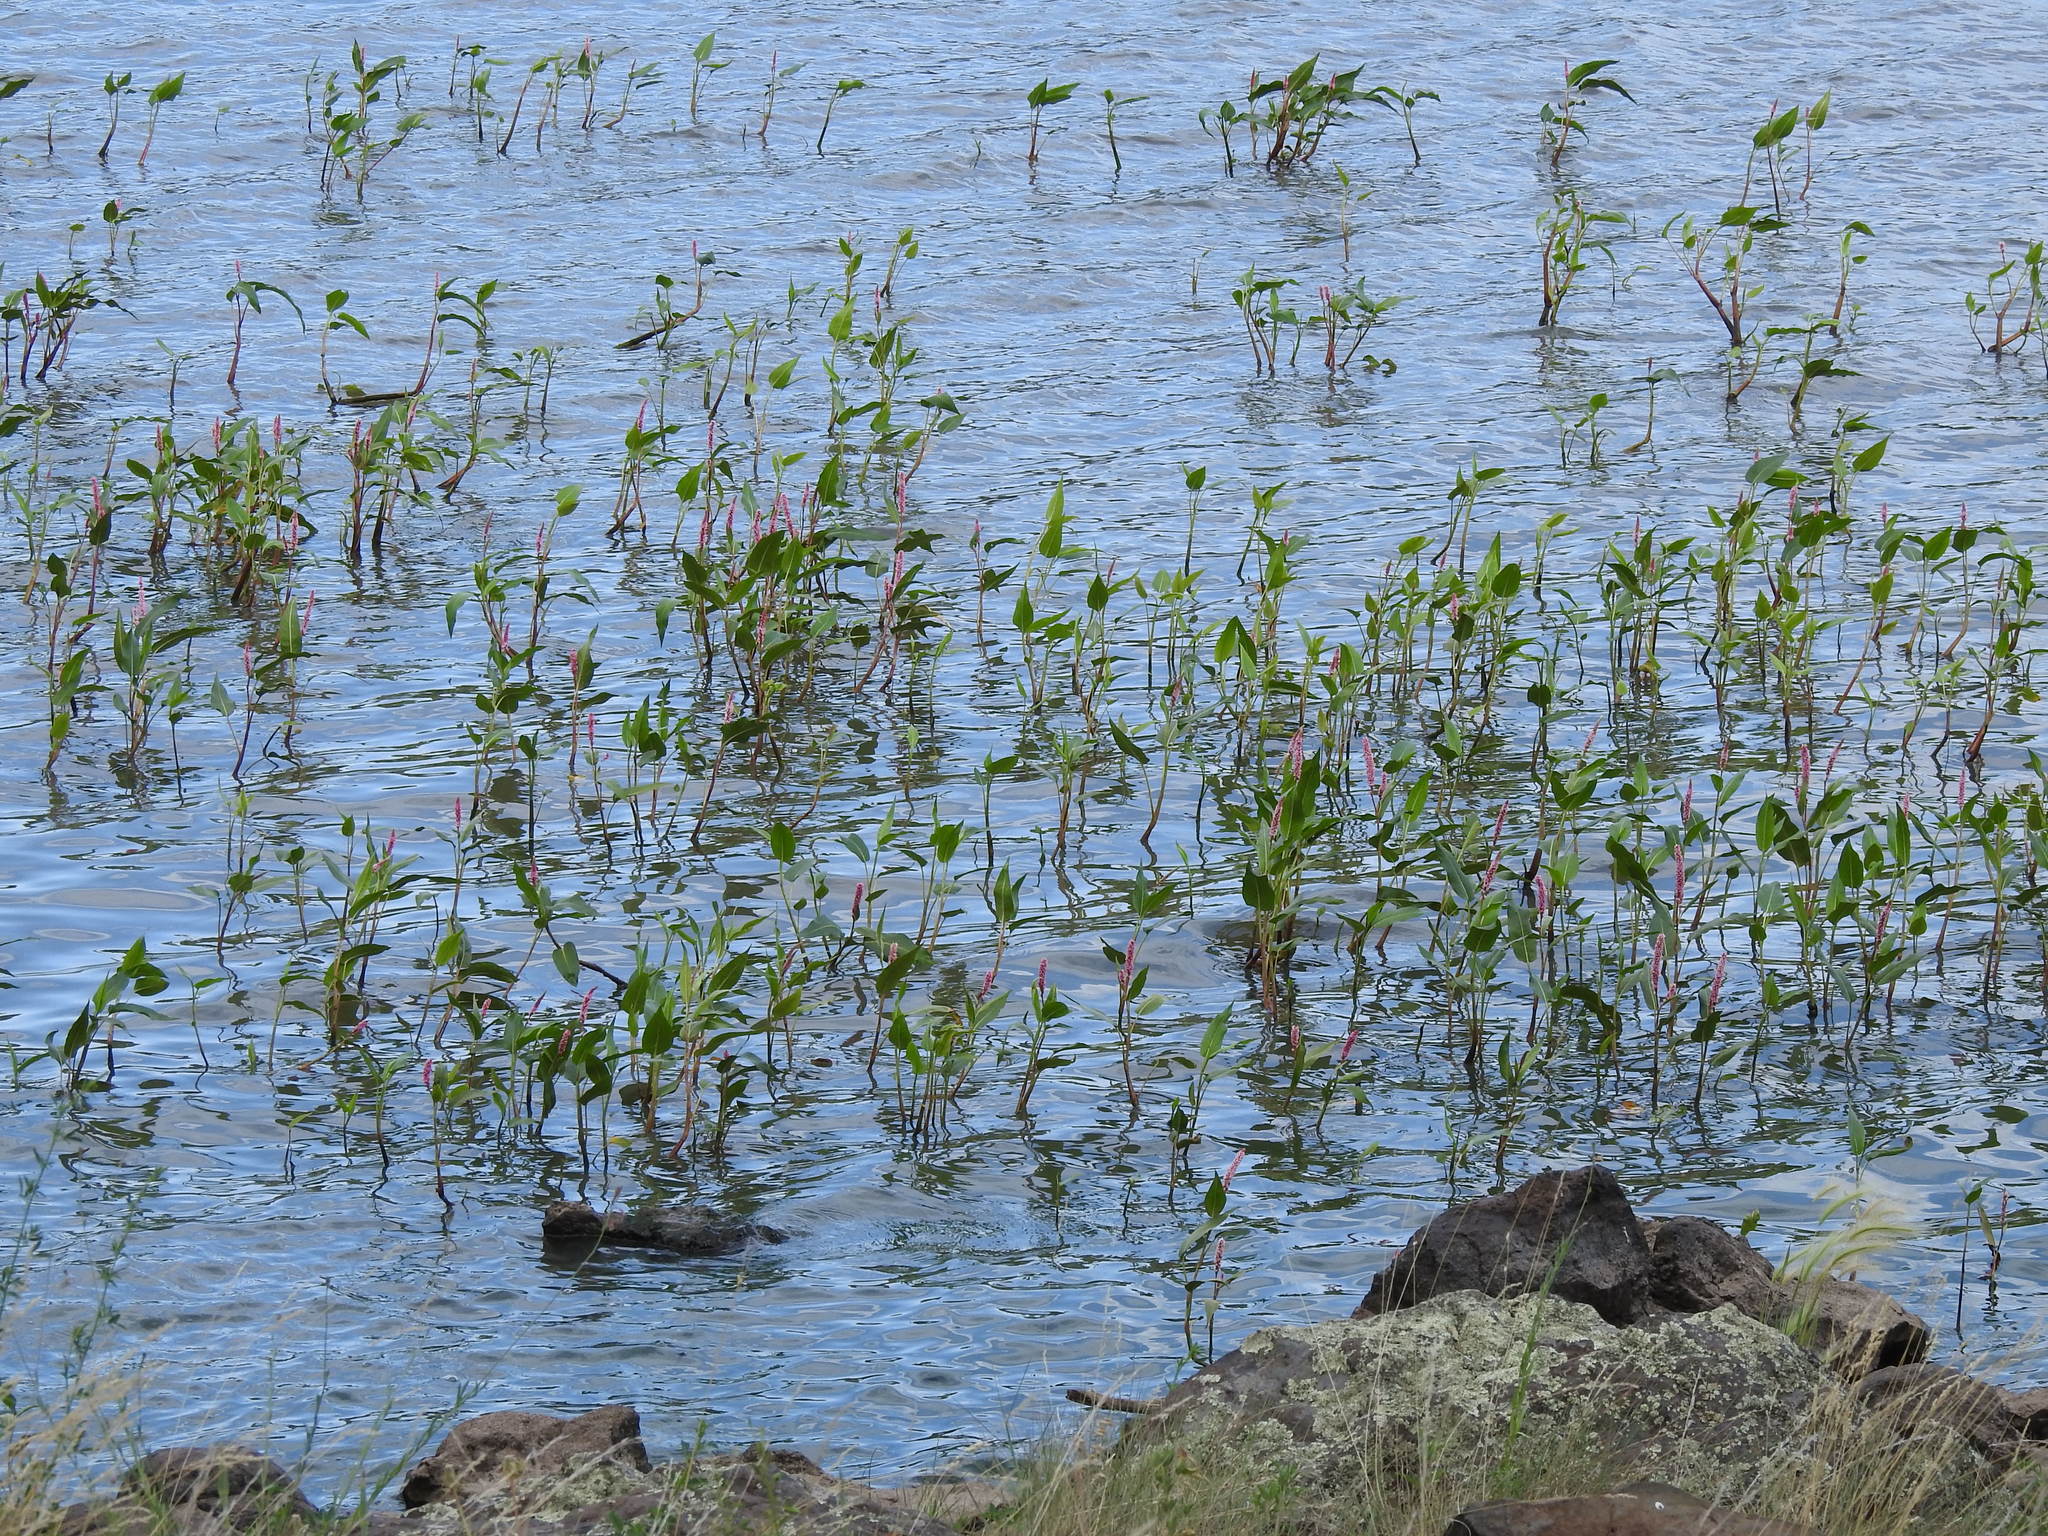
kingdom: Plantae
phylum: Tracheophyta
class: Magnoliopsida
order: Caryophyllales
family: Polygonaceae
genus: Persicaria
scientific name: Persicaria amphibia
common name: Amphibious bistort
